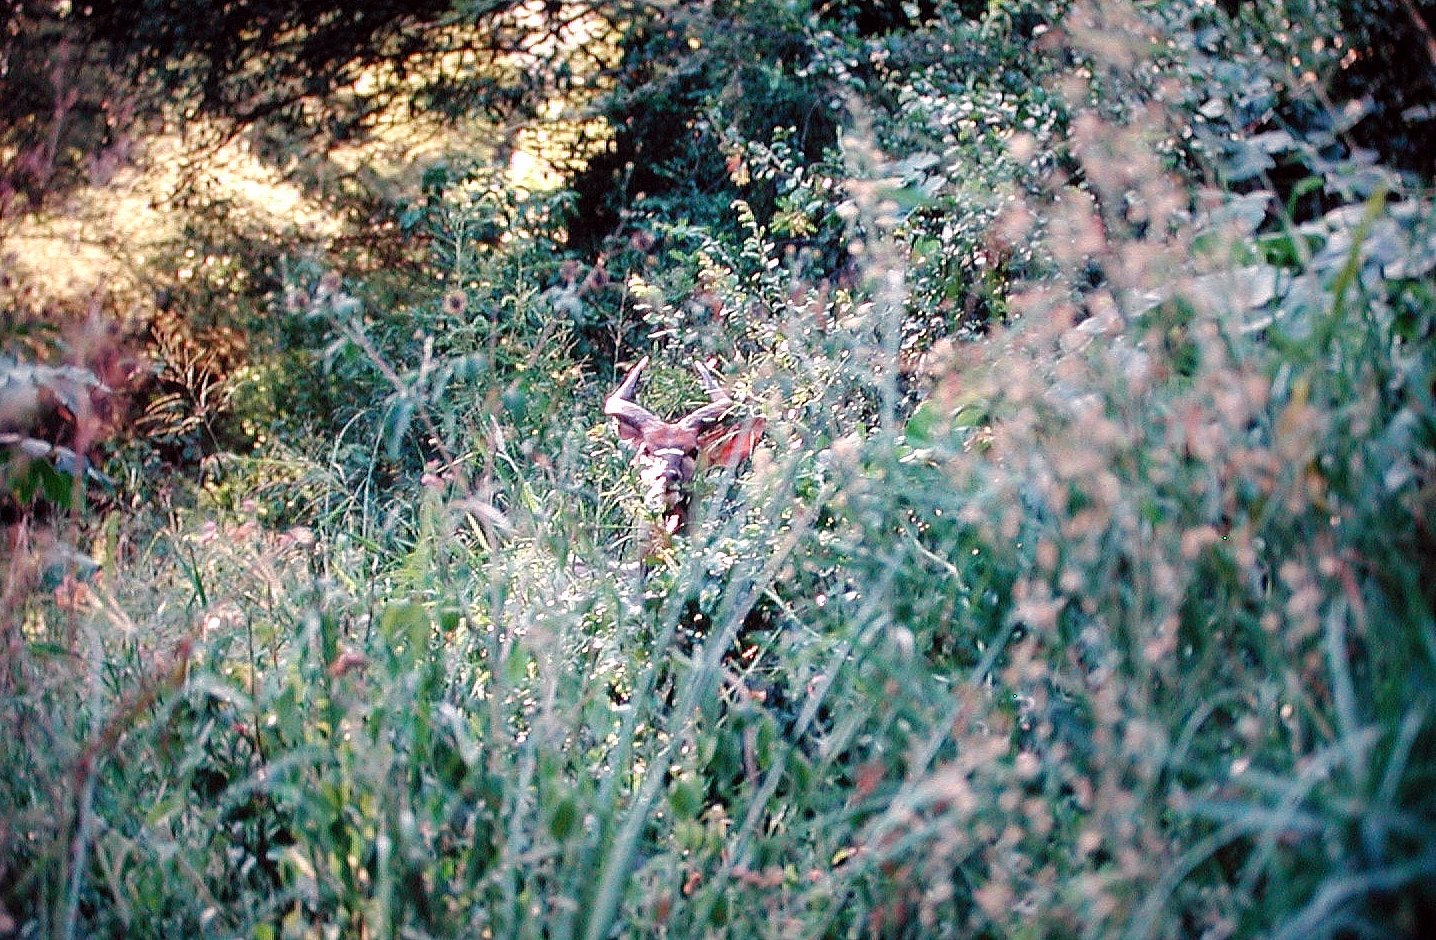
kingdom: Animalia
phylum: Chordata
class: Mammalia
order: Artiodactyla
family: Bovidae
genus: Tragelaphus
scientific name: Tragelaphus angasii
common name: Nyala
